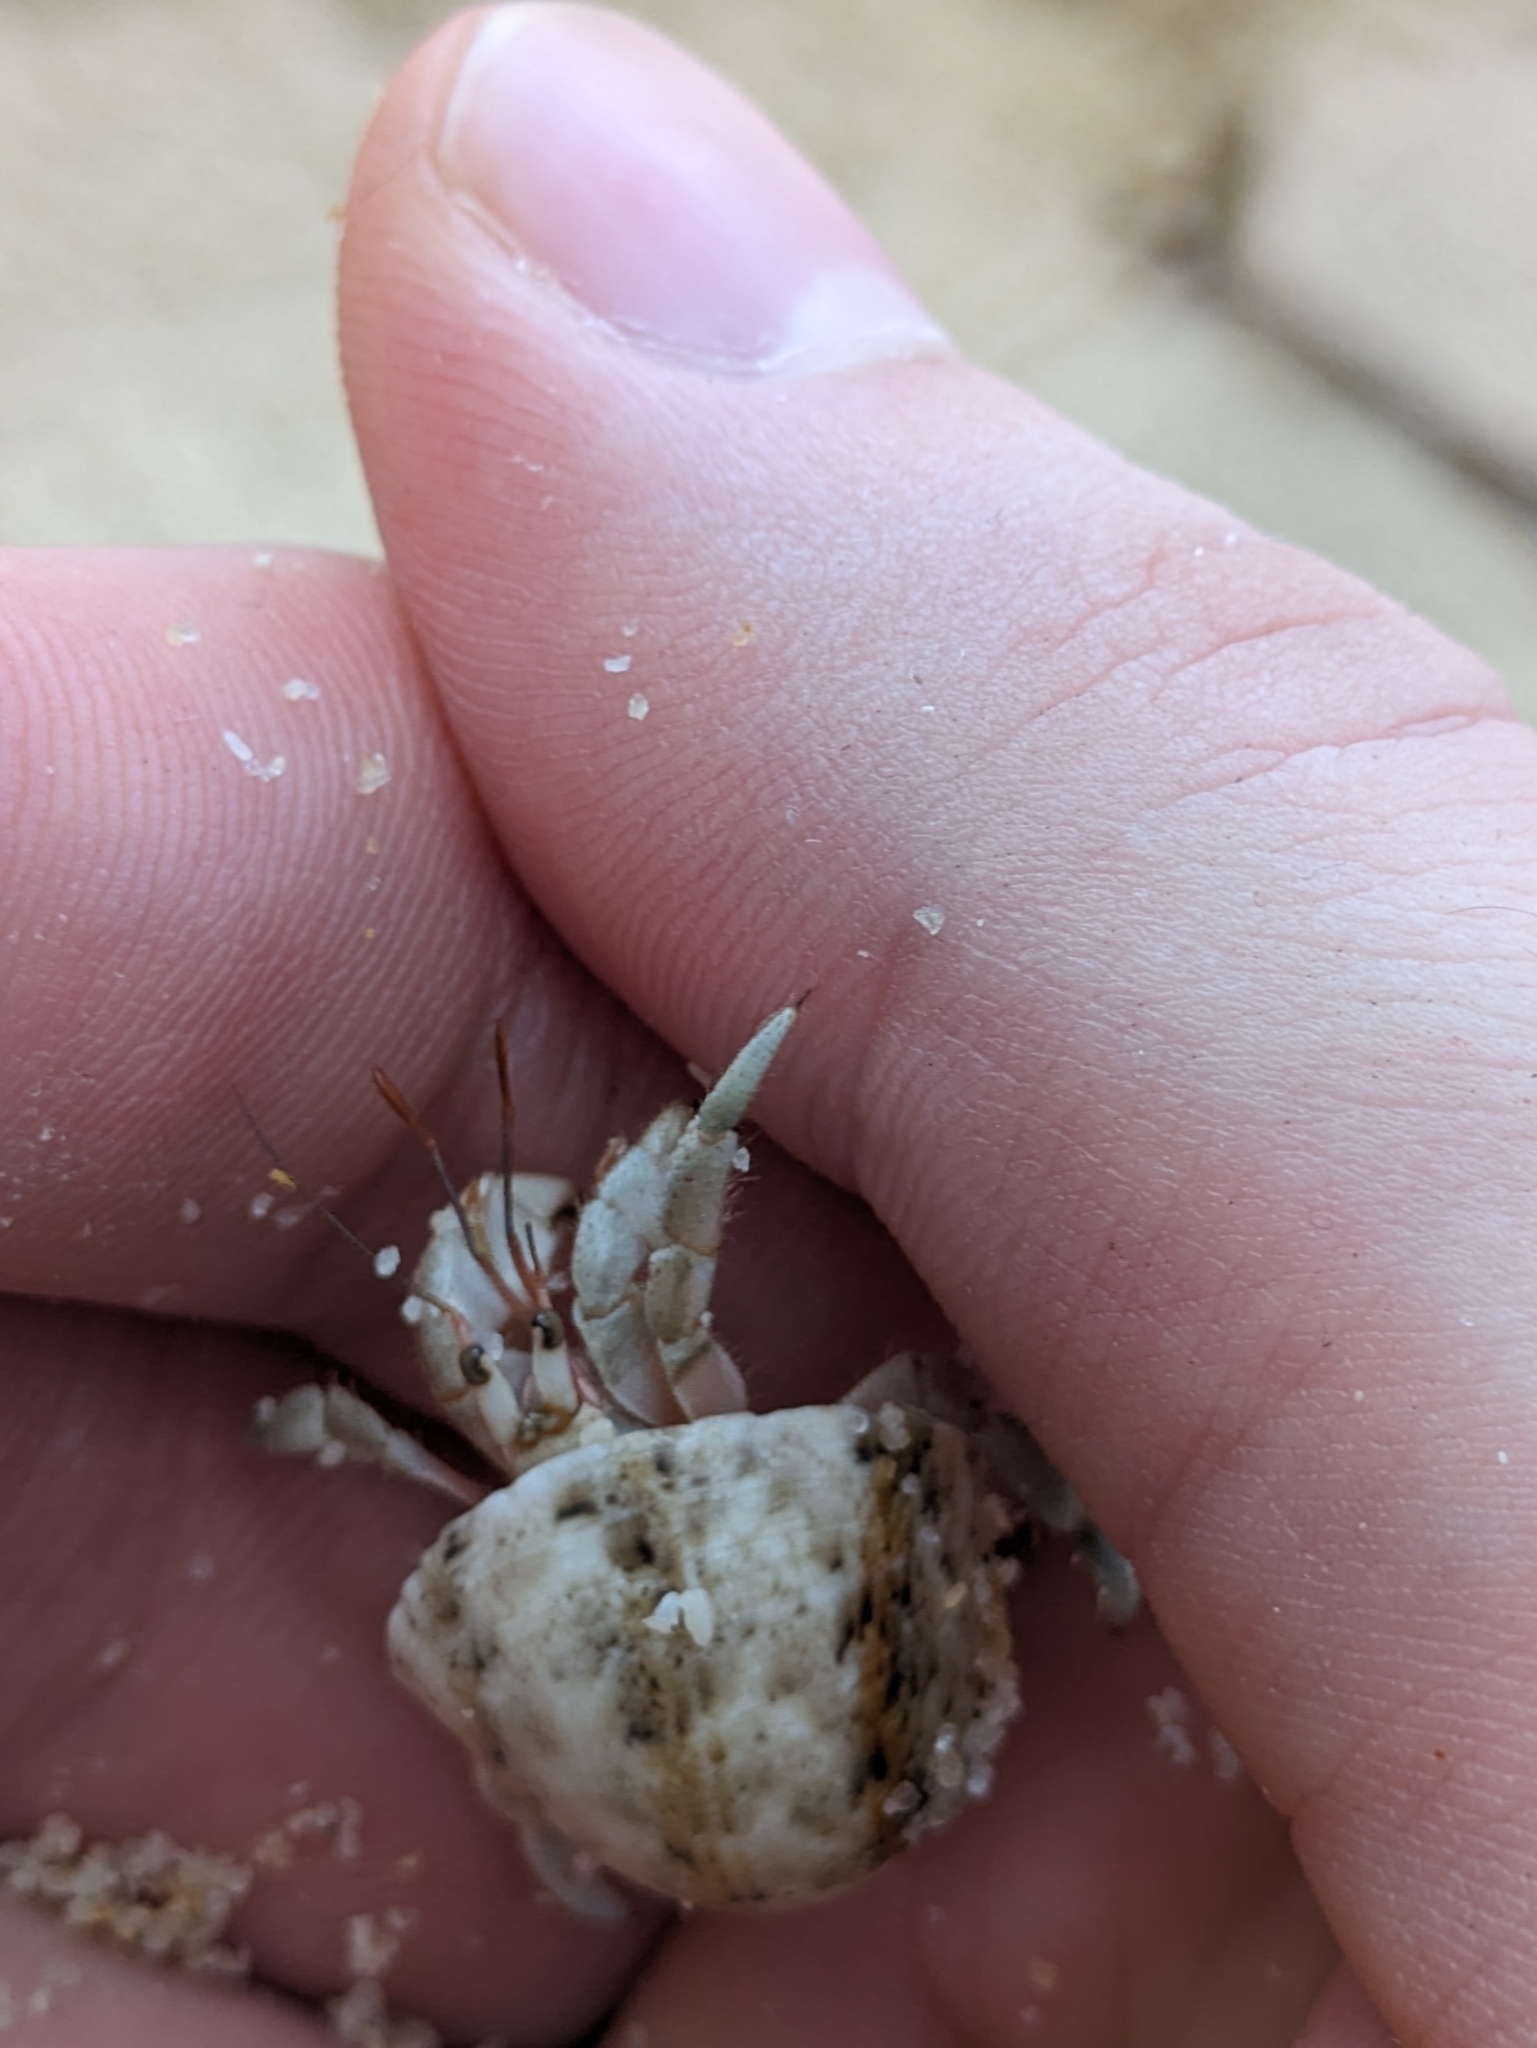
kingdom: Animalia
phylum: Arthropoda
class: Malacostraca
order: Decapoda
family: Coenobitidae
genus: Coenobita
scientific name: Coenobita rugosus
